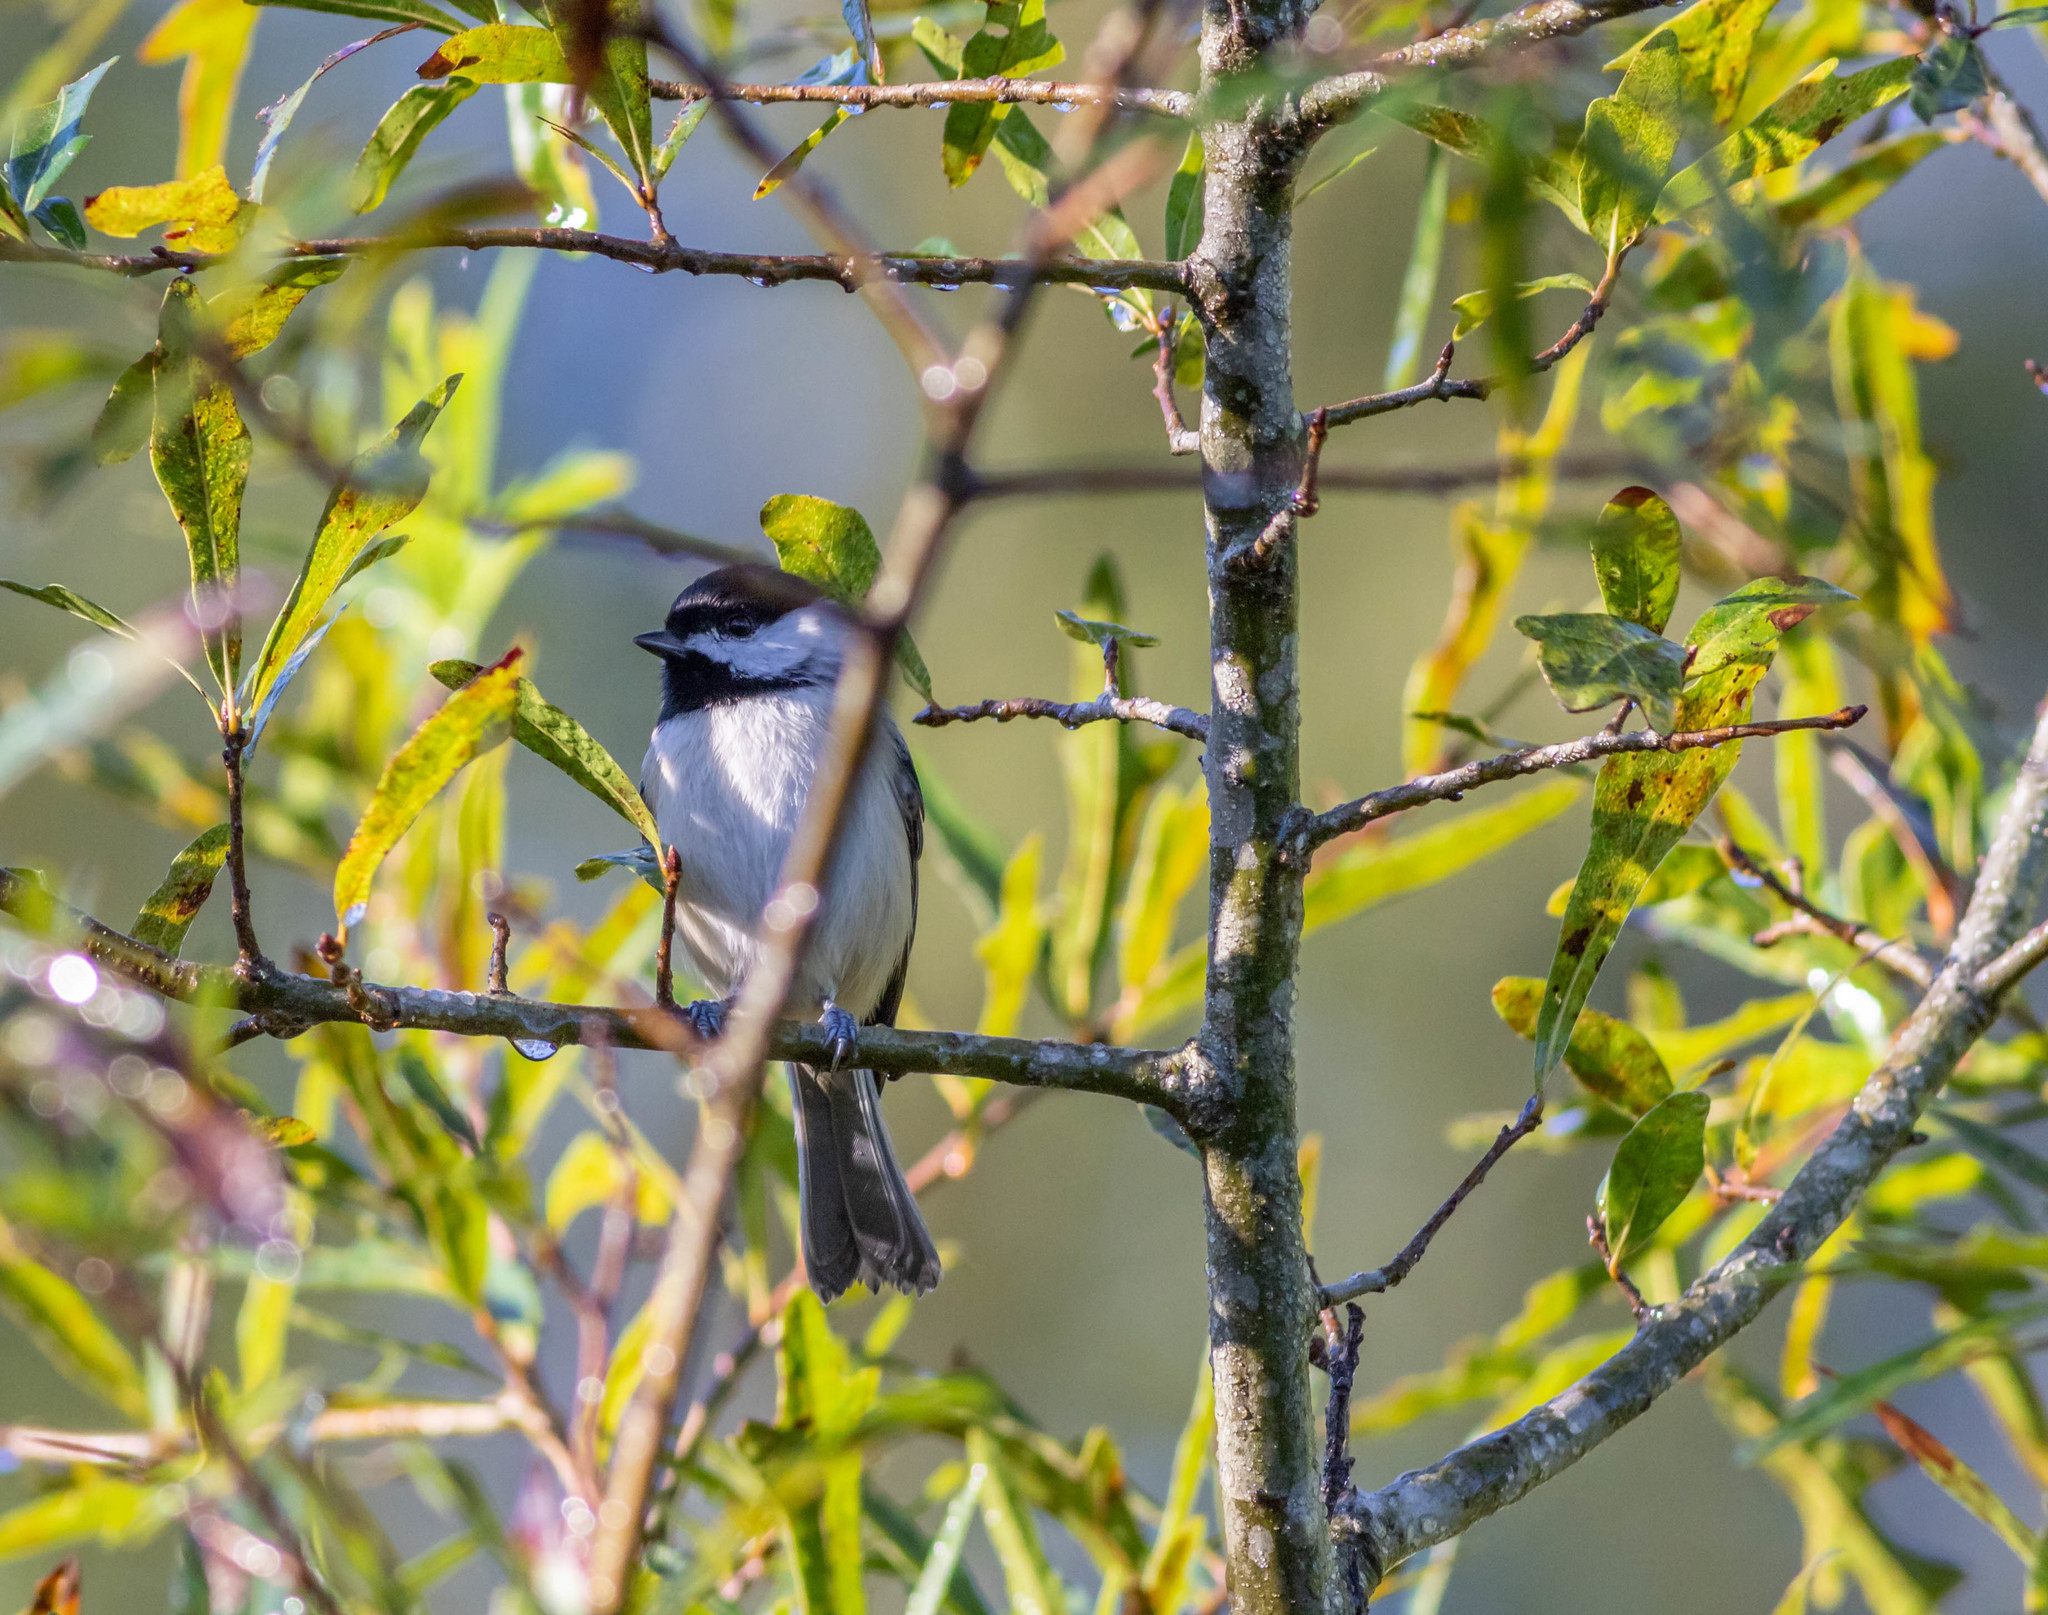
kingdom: Animalia
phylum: Chordata
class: Aves
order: Passeriformes
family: Paridae
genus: Poecile
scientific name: Poecile carolinensis
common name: Carolina chickadee
